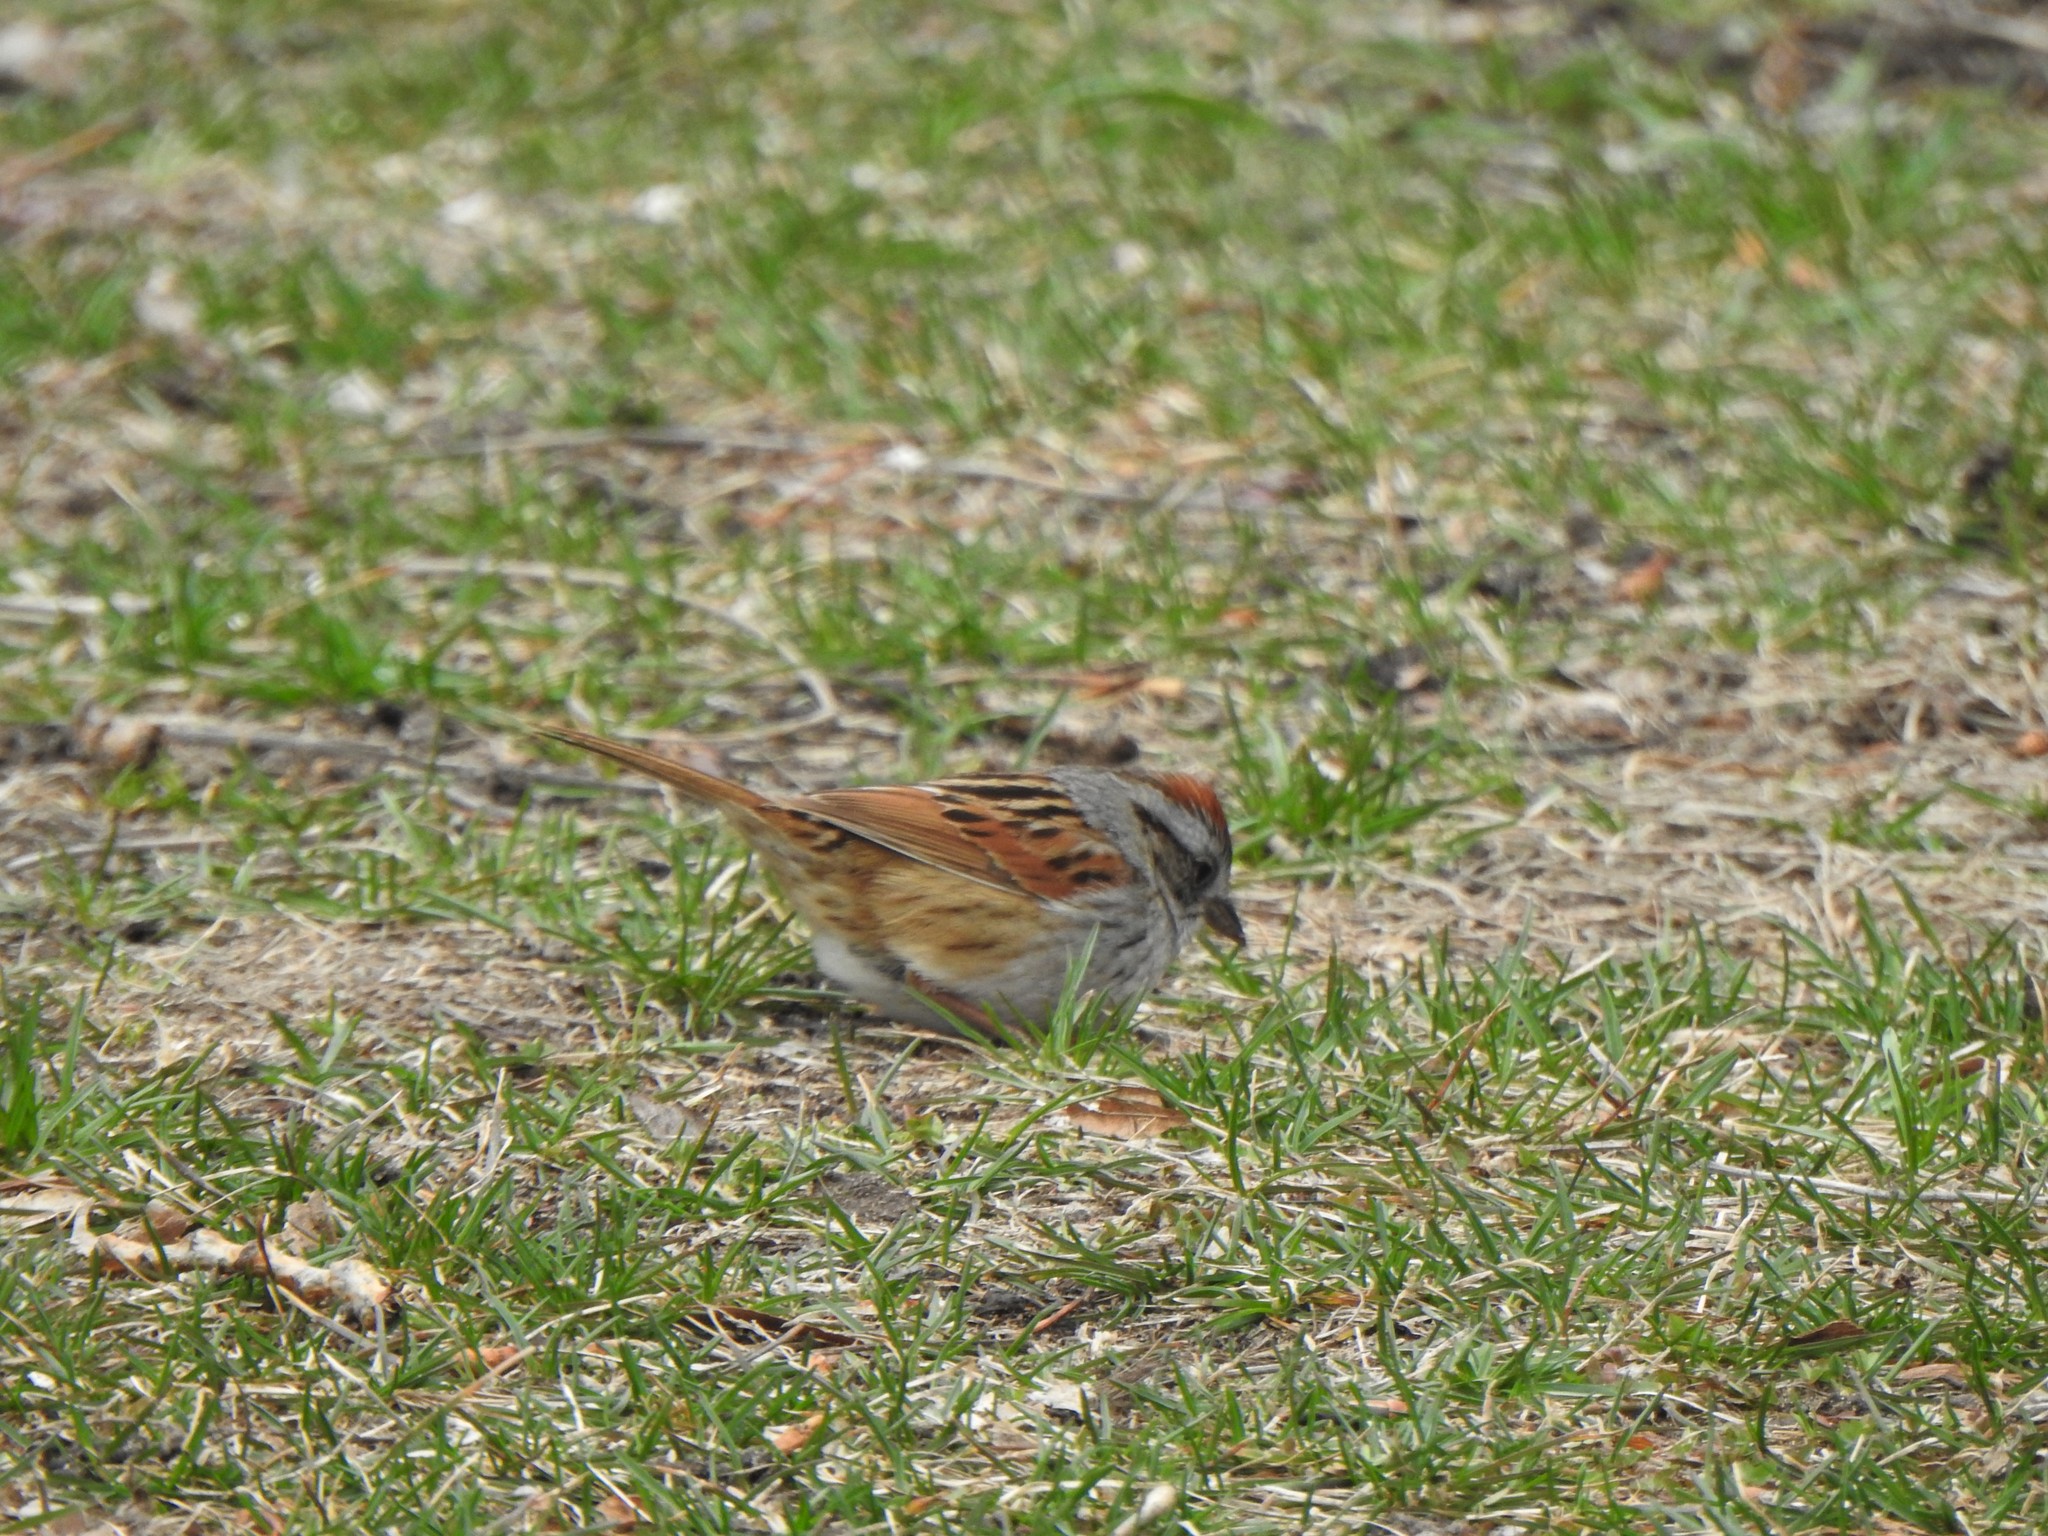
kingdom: Animalia
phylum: Chordata
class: Aves
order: Passeriformes
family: Passerellidae
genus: Melospiza
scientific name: Melospiza georgiana
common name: Swamp sparrow
